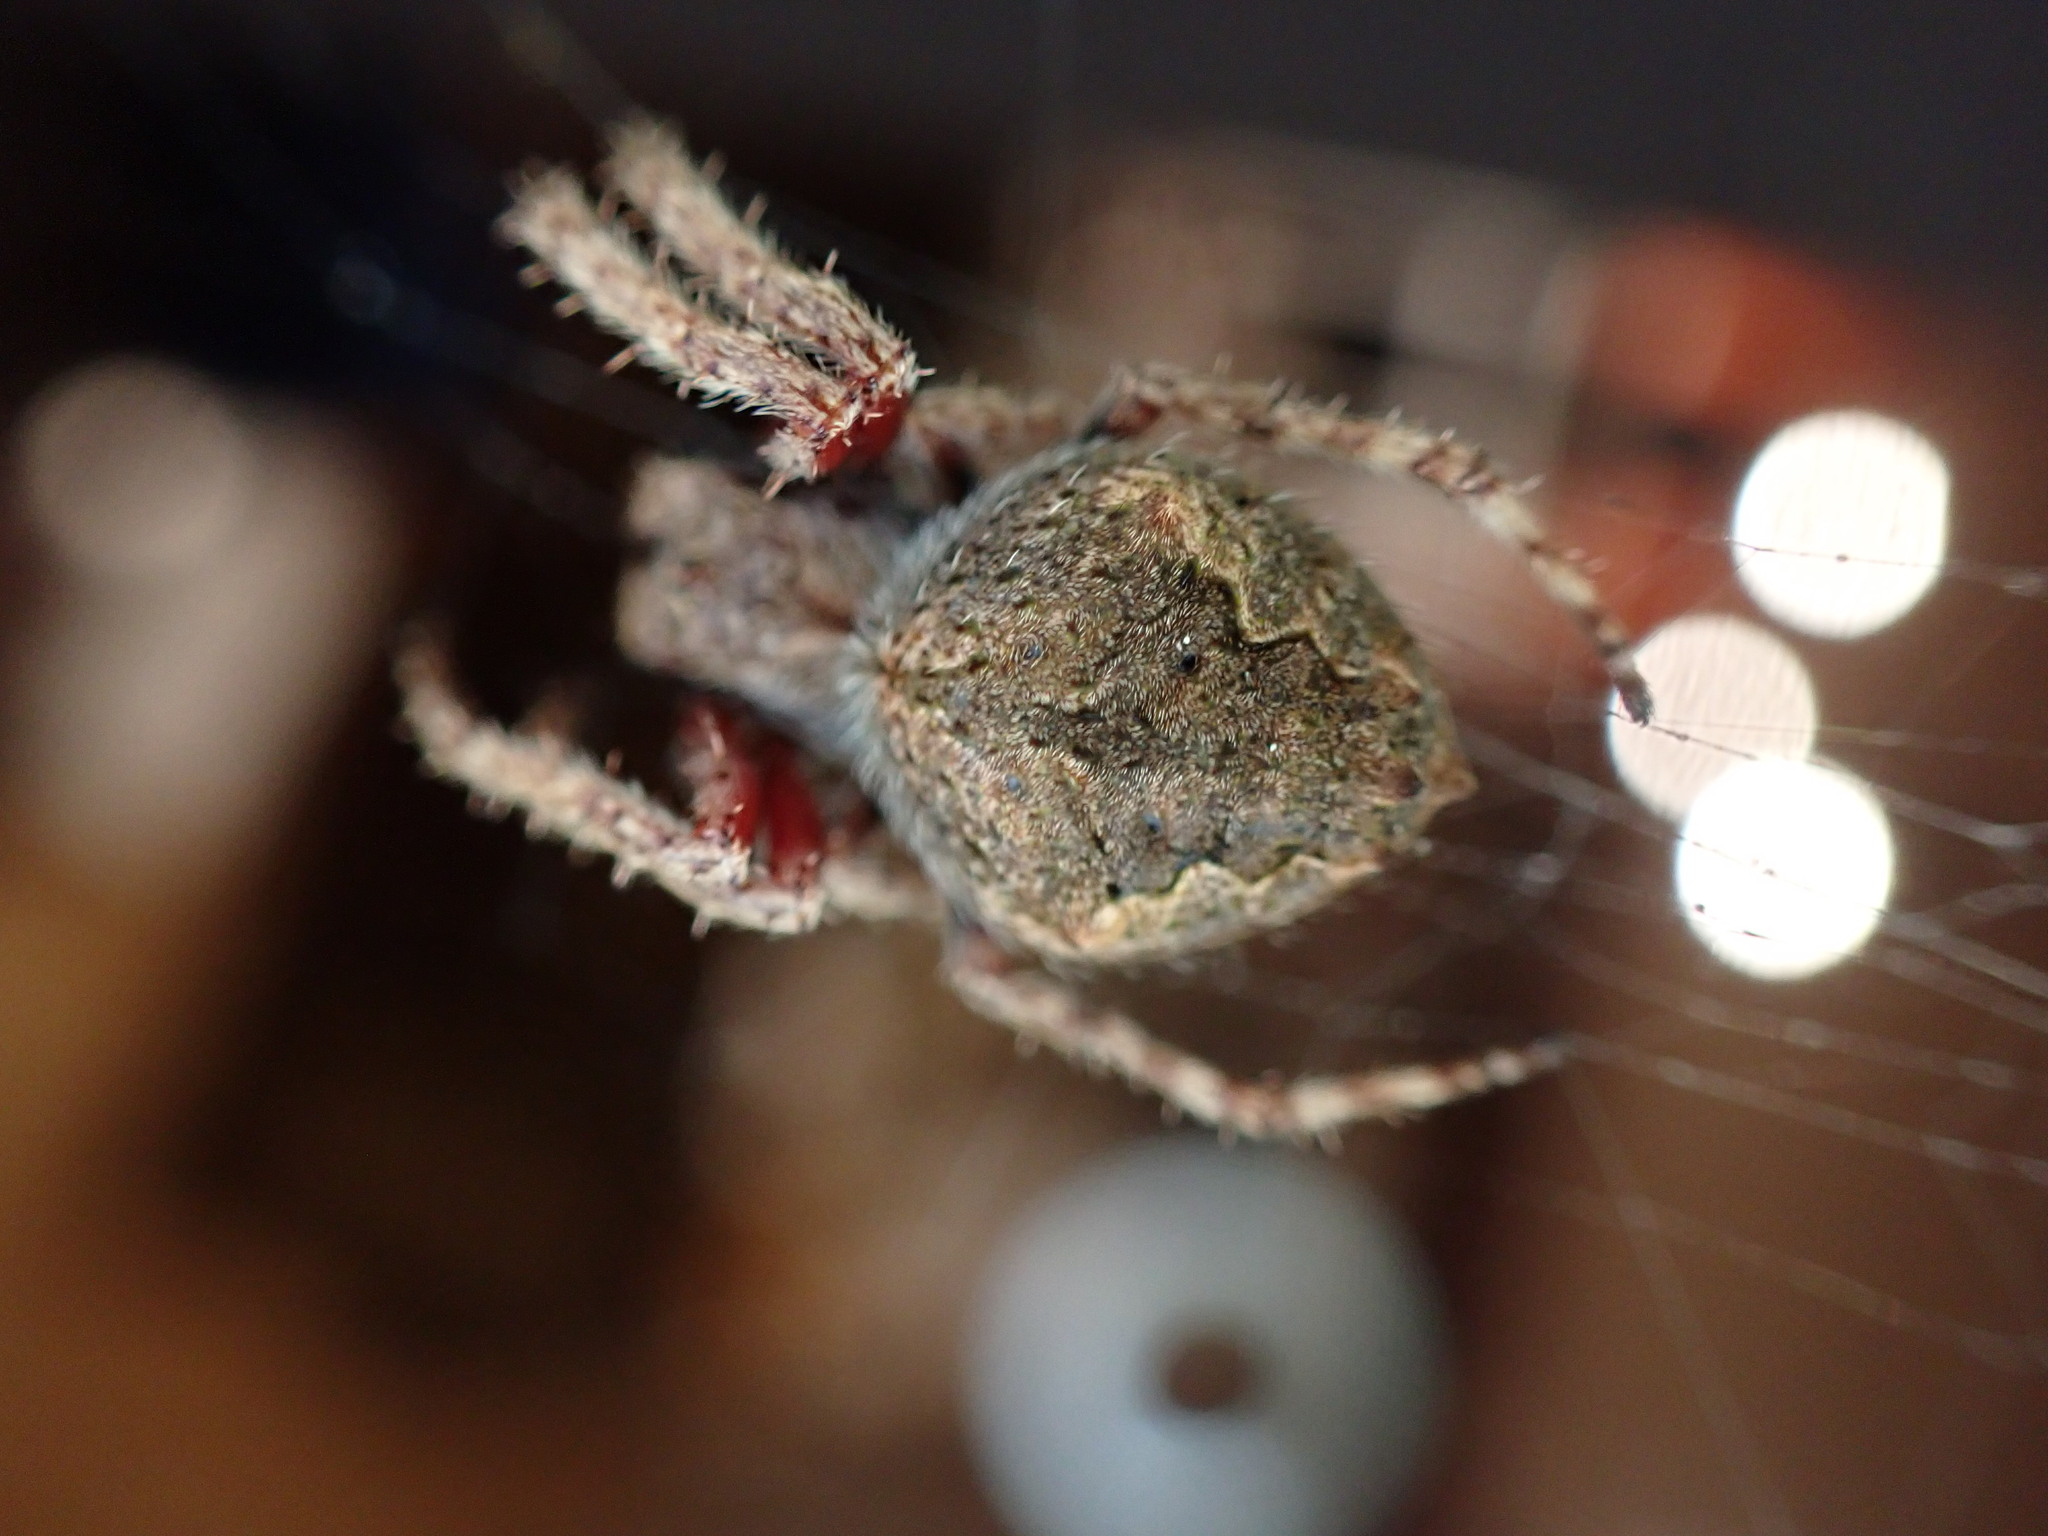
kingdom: Animalia
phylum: Arthropoda
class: Arachnida
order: Araneae
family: Araneidae
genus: Eriophora
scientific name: Eriophora pustulosa
